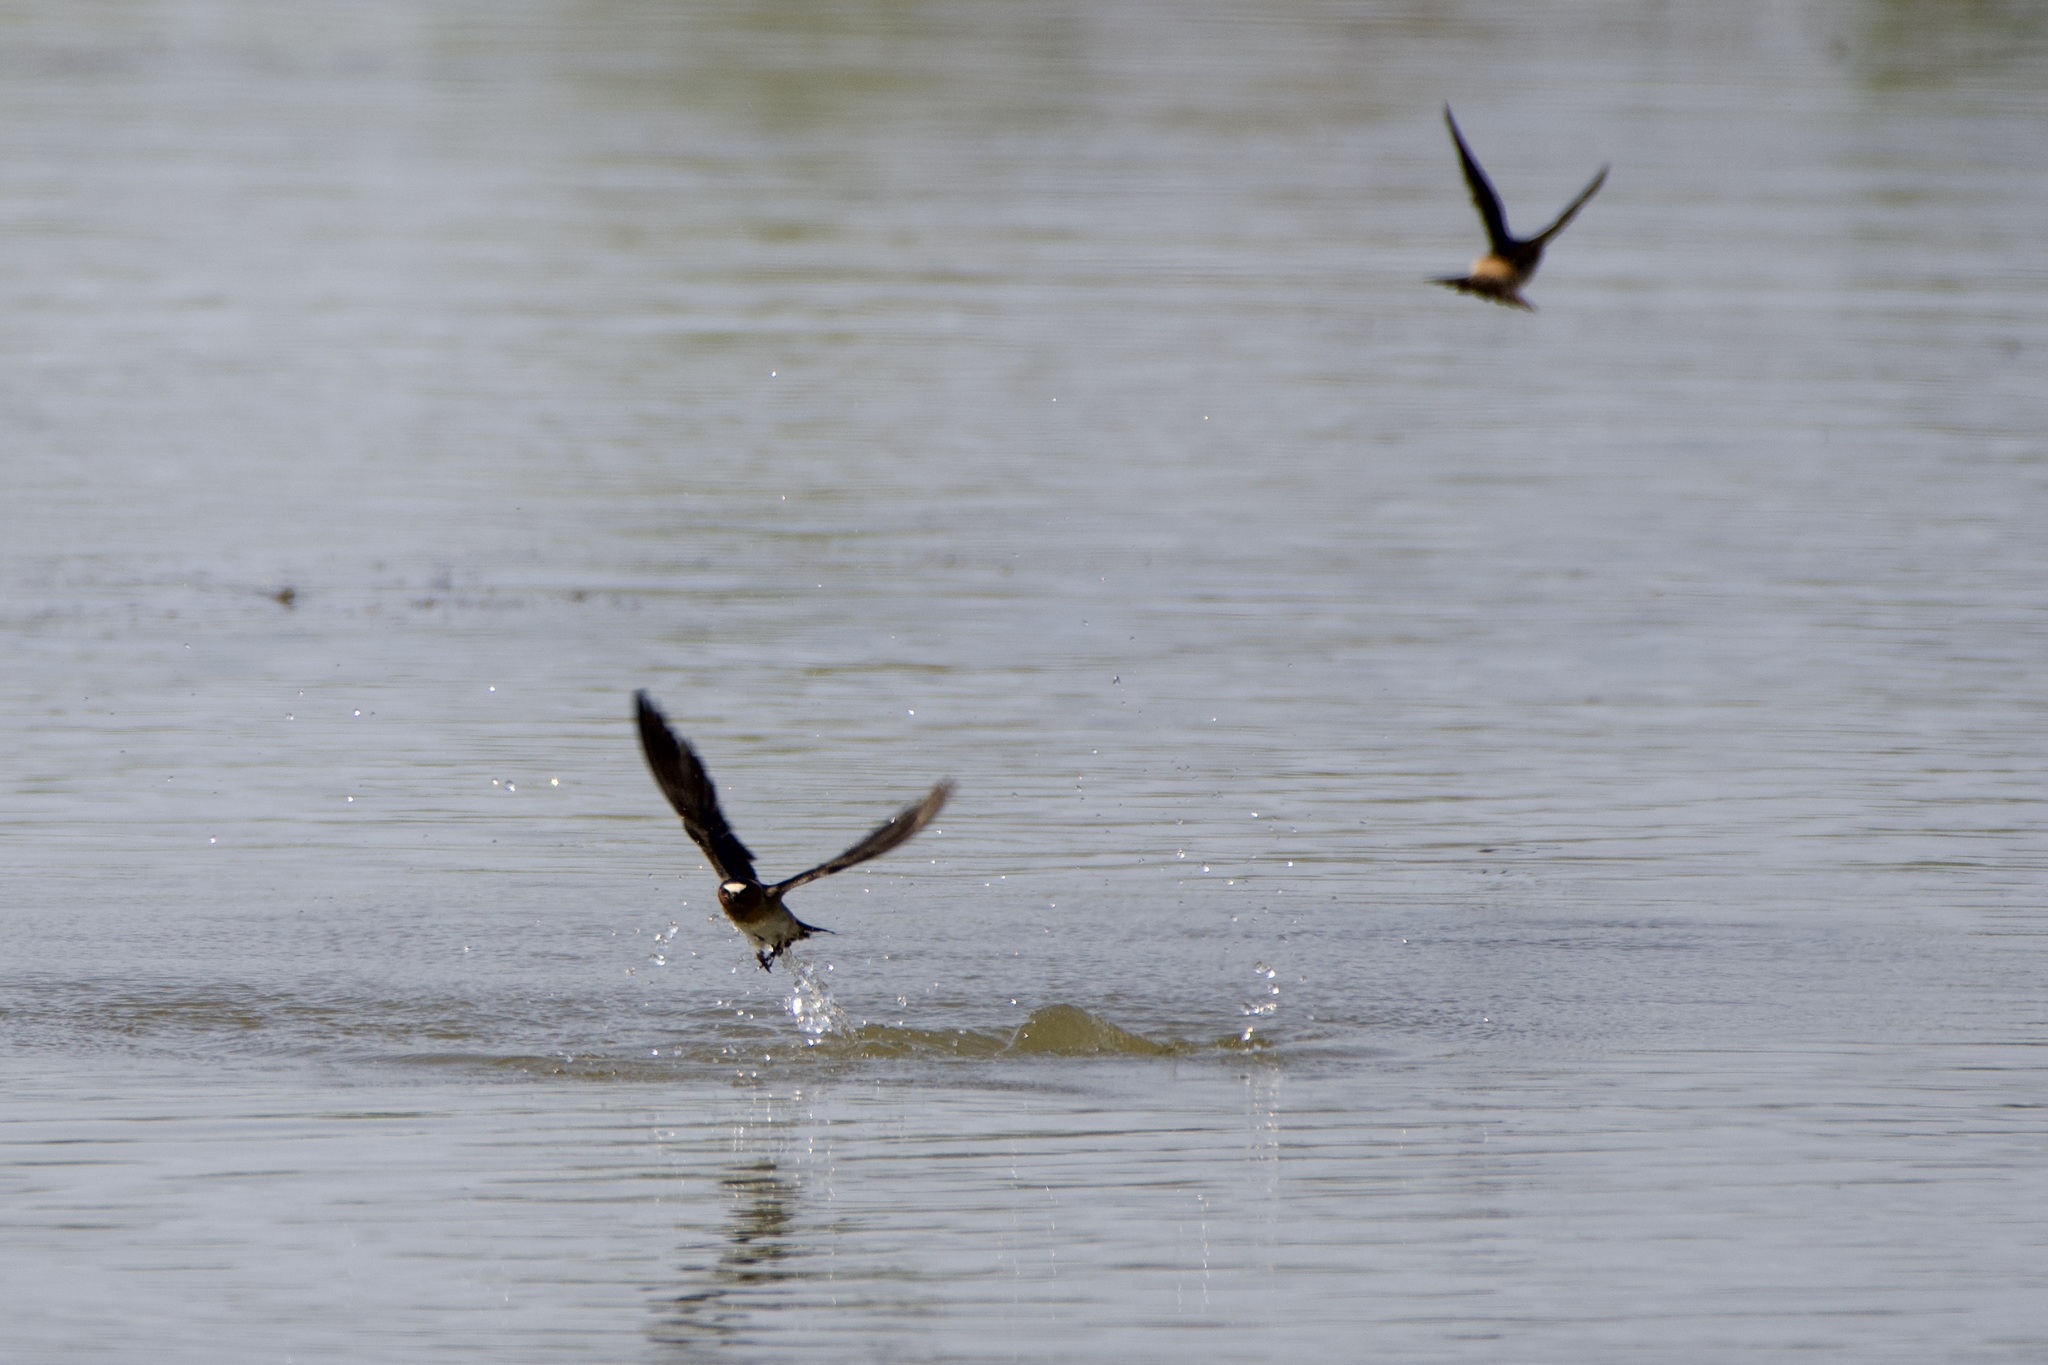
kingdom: Animalia
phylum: Chordata
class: Aves
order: Passeriformes
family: Hirundinidae
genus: Petrochelidon
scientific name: Petrochelidon pyrrhonota
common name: American cliff swallow
